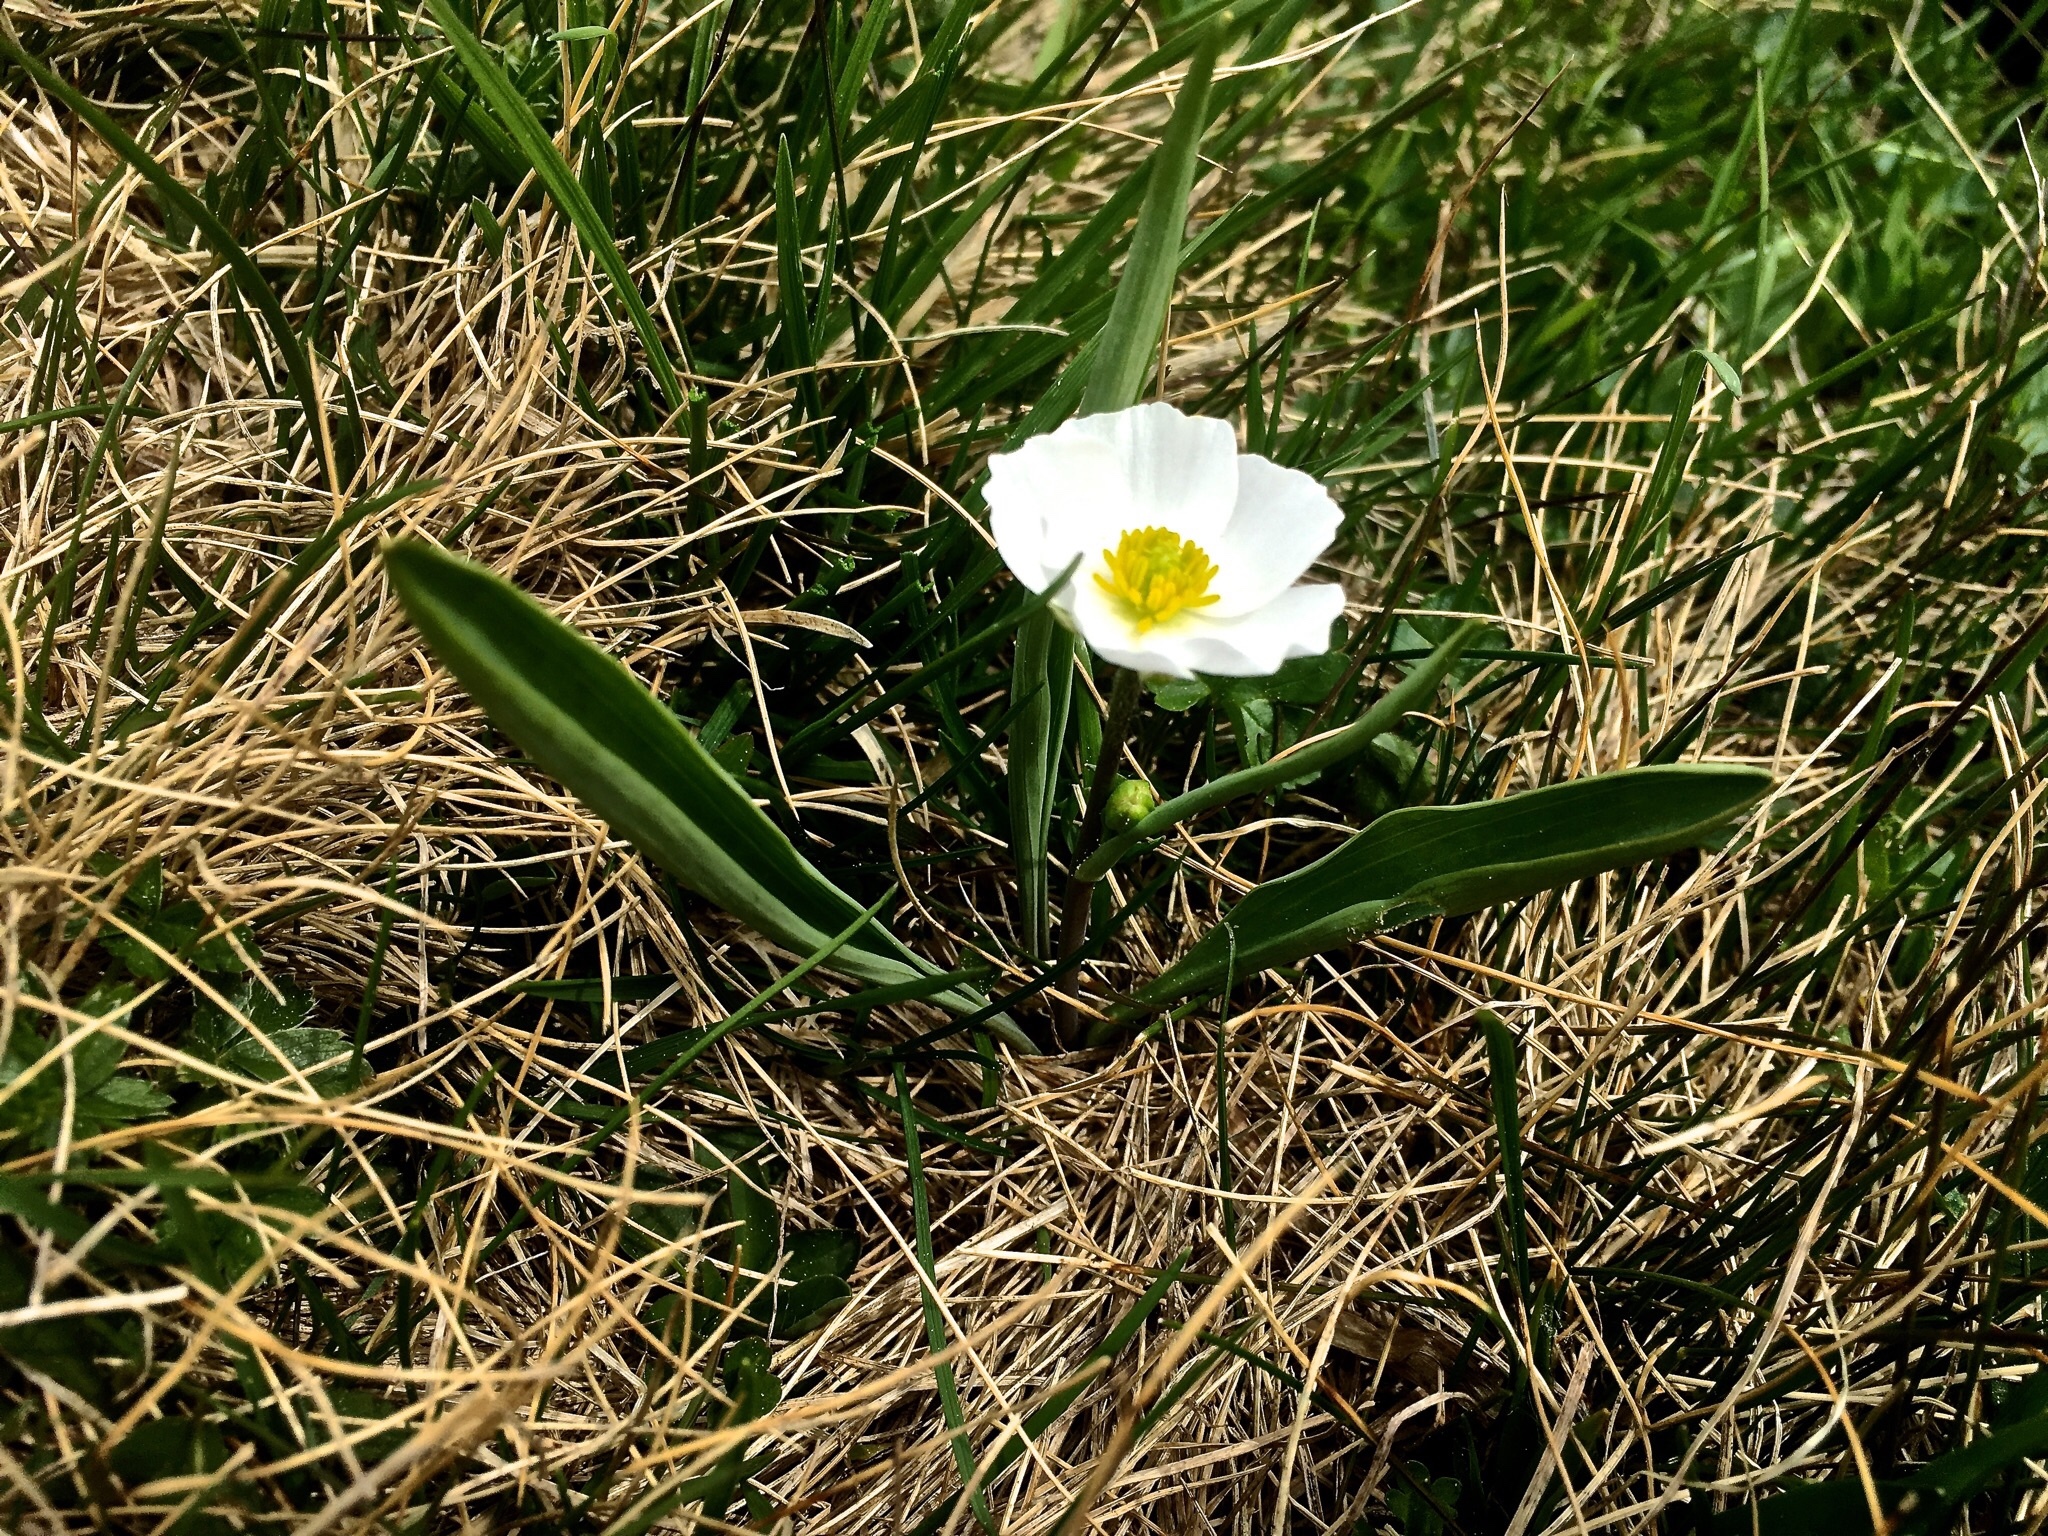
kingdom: Plantae
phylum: Tracheophyta
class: Magnoliopsida
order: Ranunculales
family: Ranunculaceae
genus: Ranunculus
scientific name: Ranunculus kuepferi
